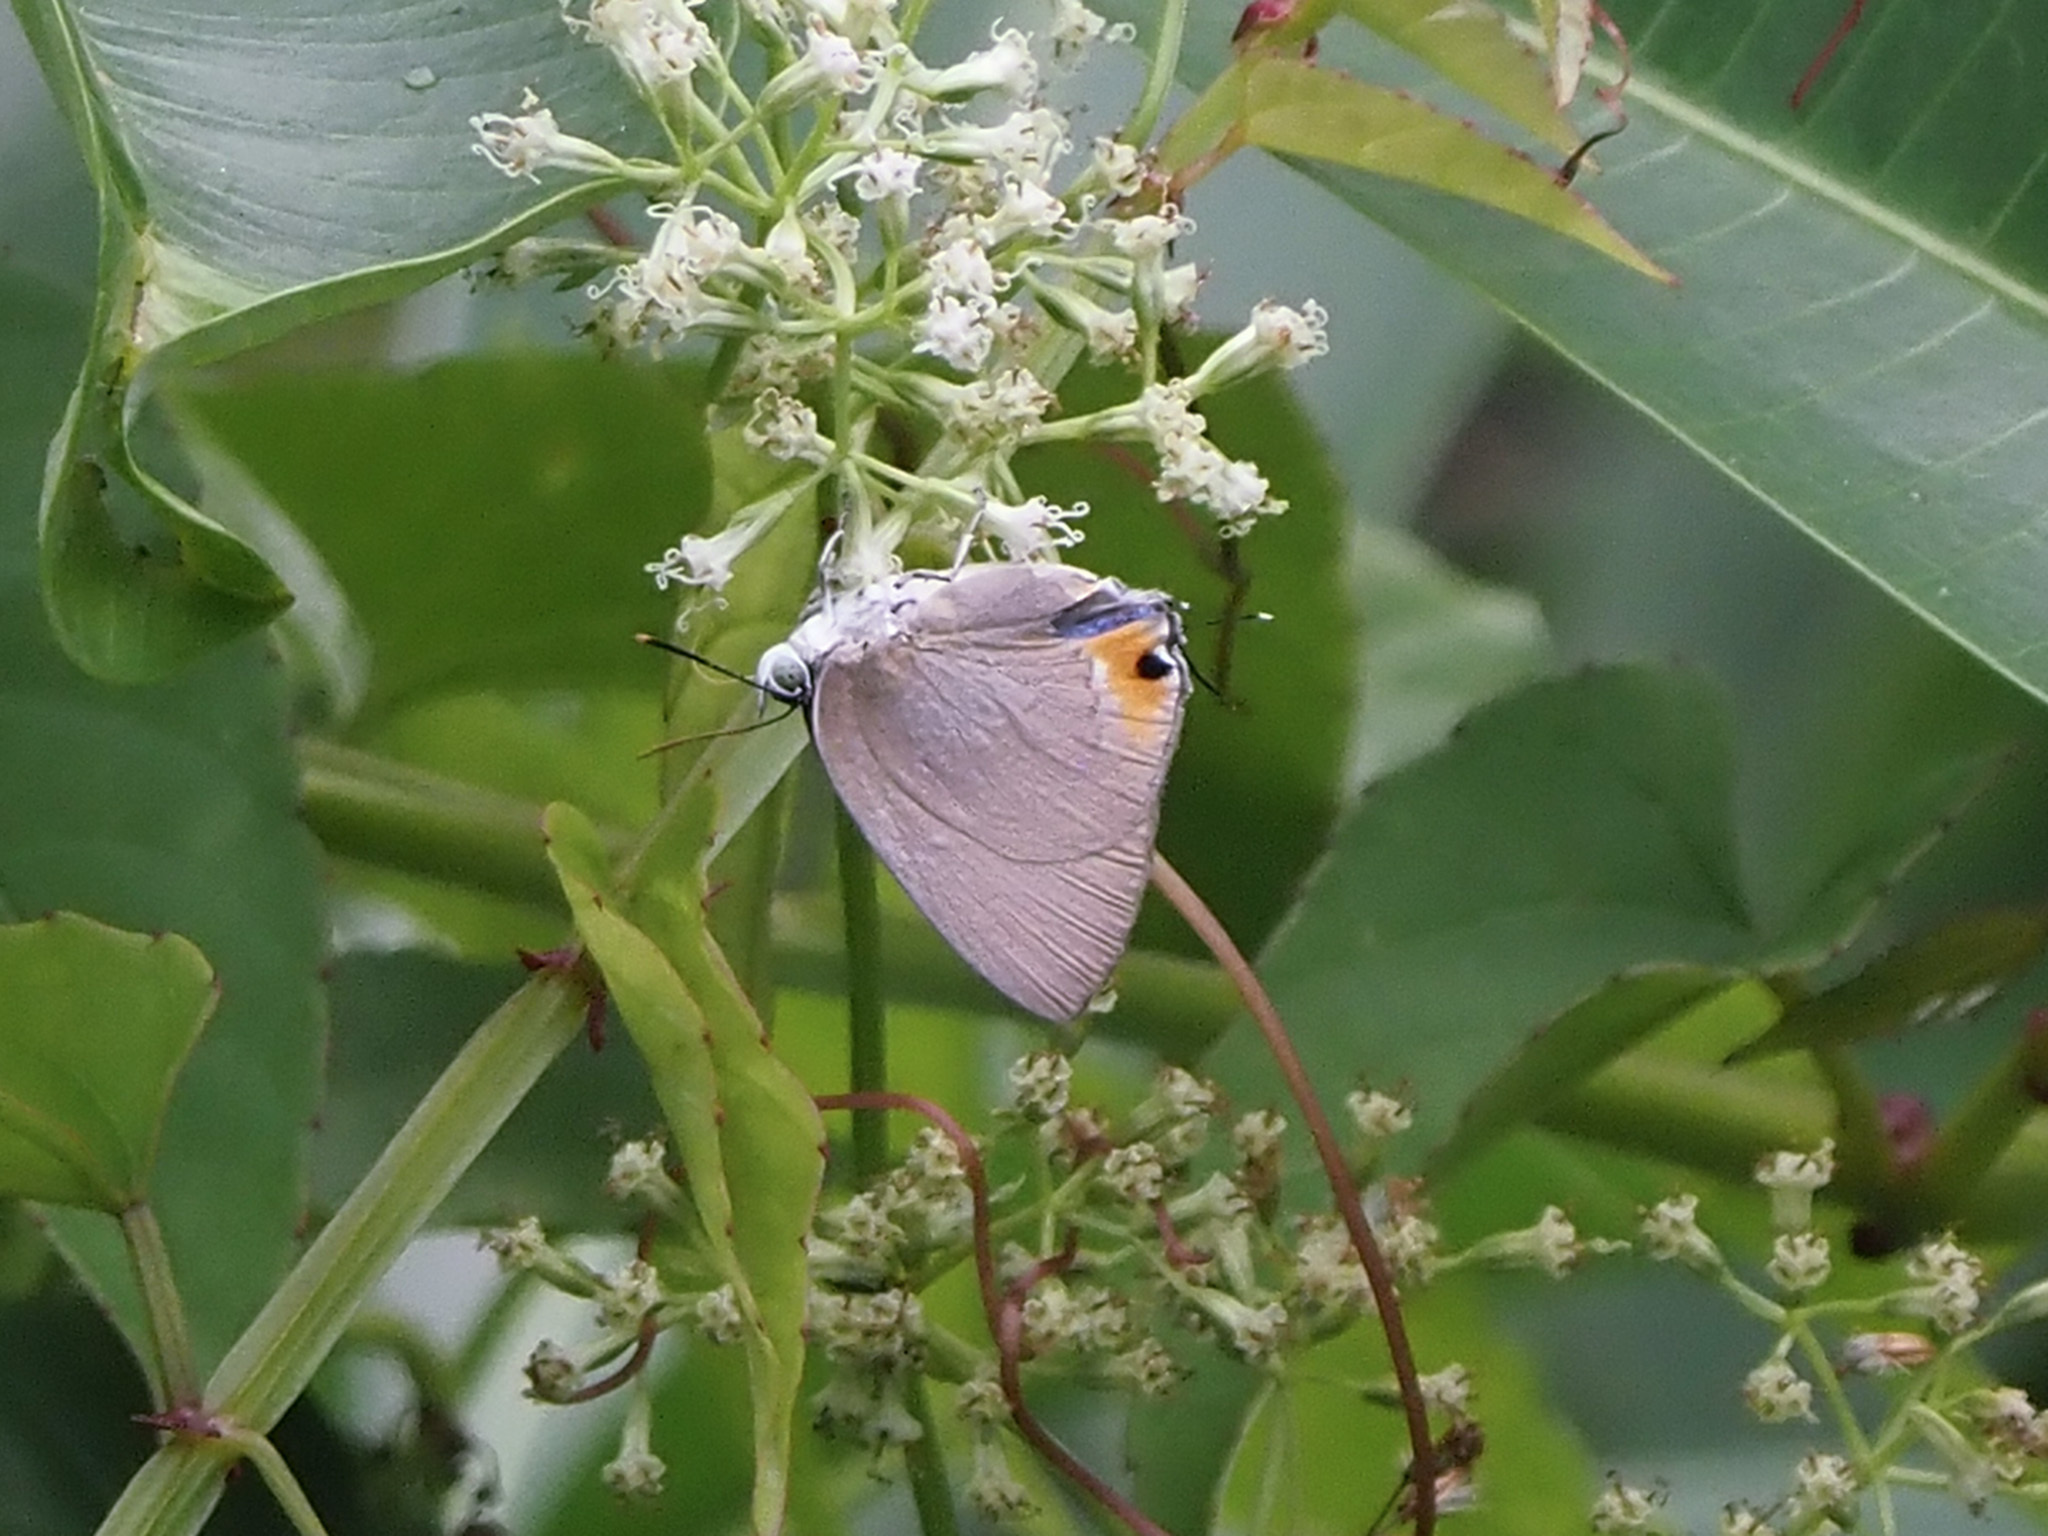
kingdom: Animalia
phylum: Arthropoda
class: Insecta
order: Lepidoptera
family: Lycaenidae
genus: Ancema
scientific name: Ancema blanka
